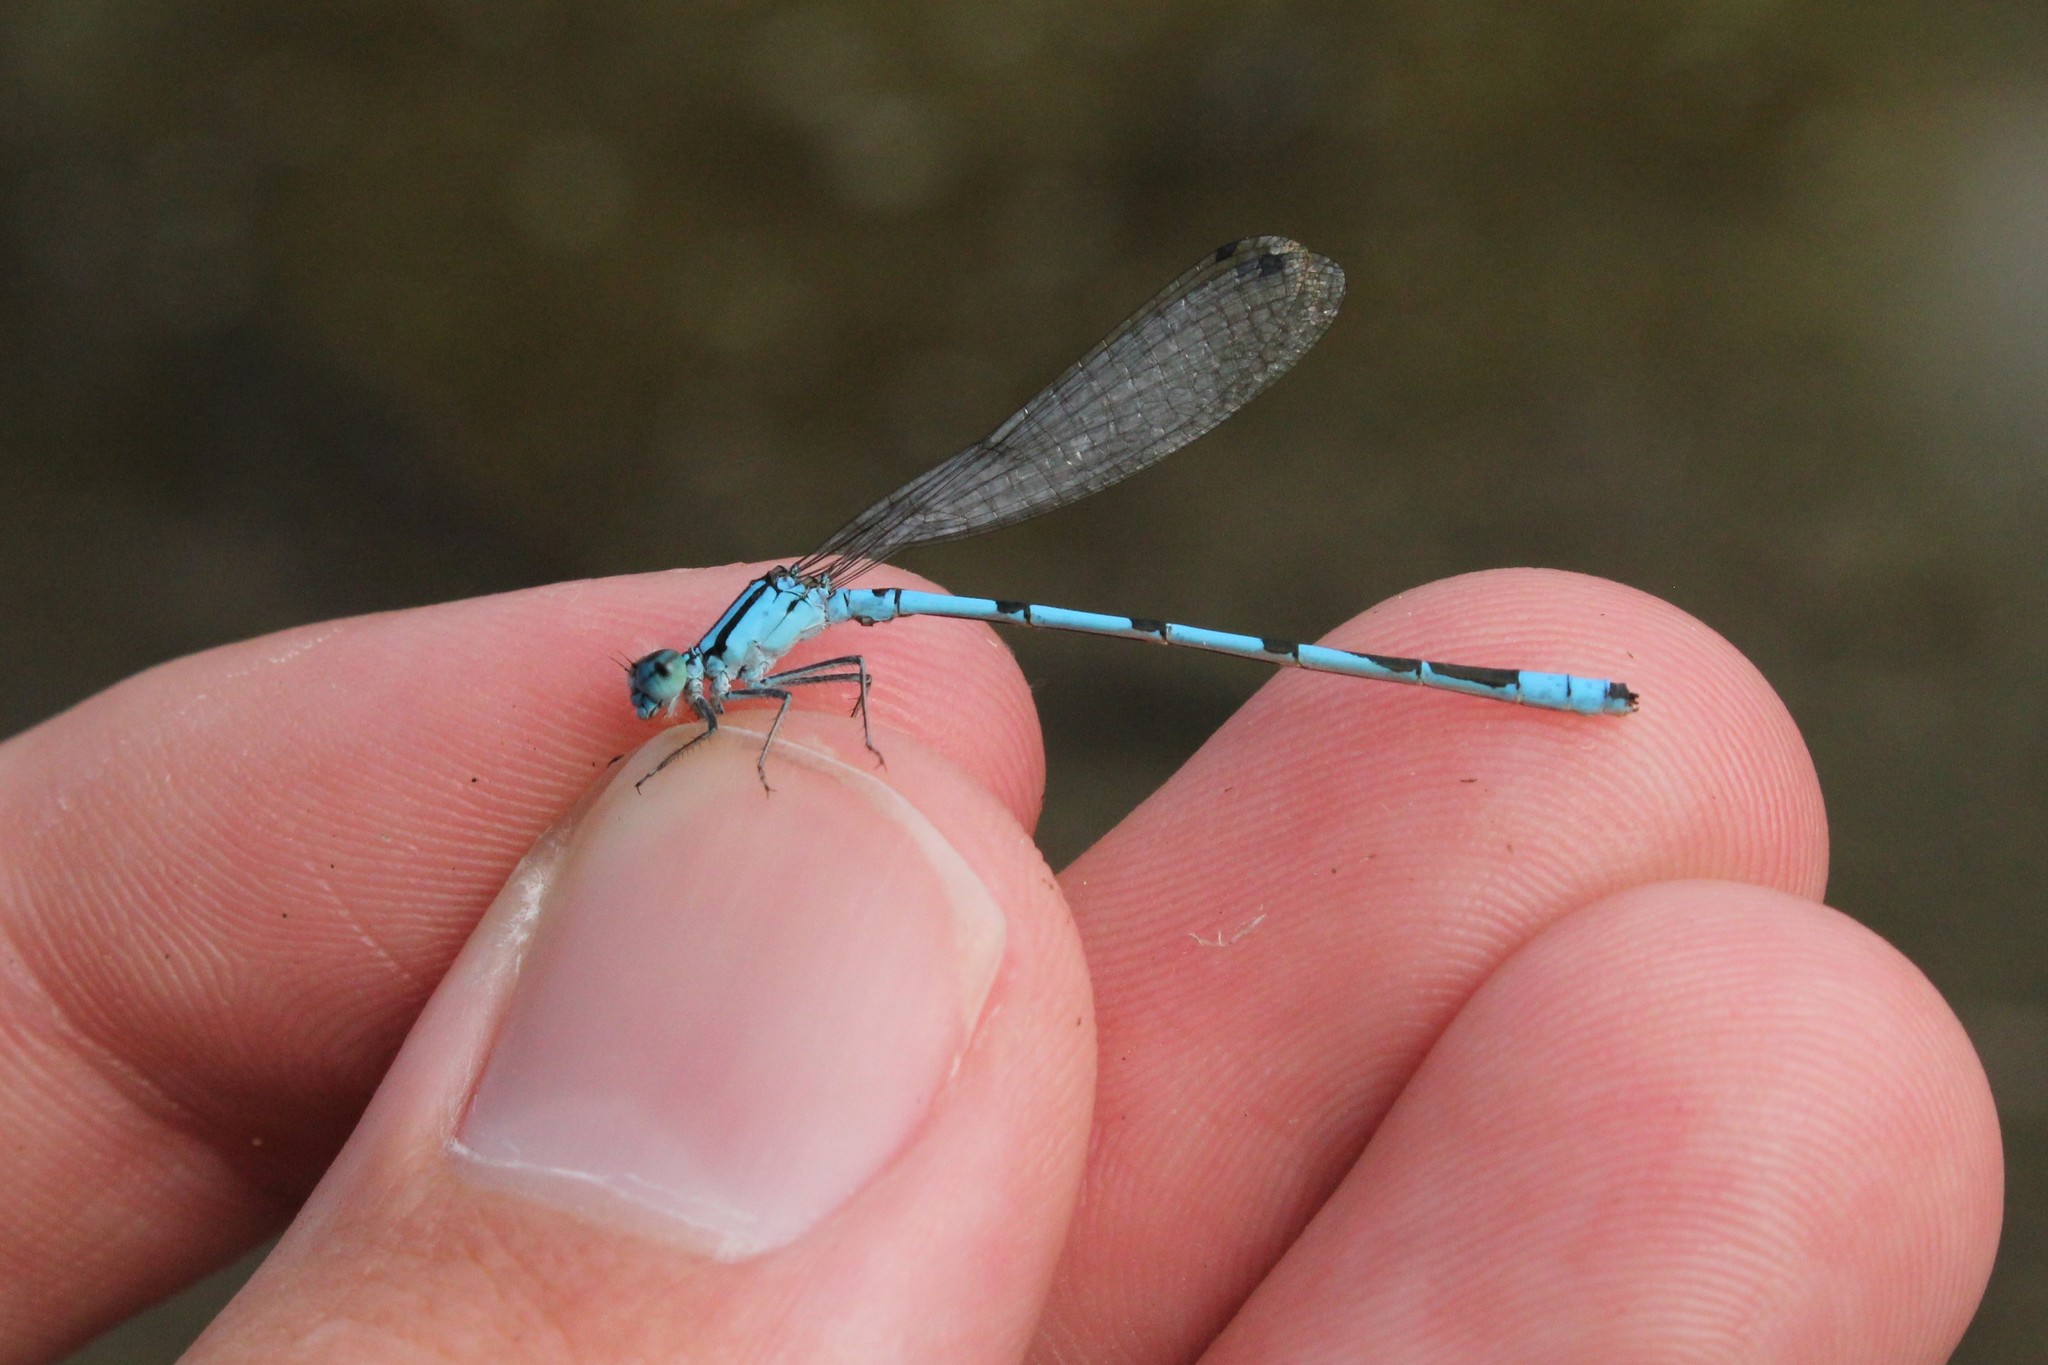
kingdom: Animalia
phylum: Arthropoda
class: Insecta
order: Odonata
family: Coenagrionidae
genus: Enallagma
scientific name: Enallagma ebrium
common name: Marsh bluet
